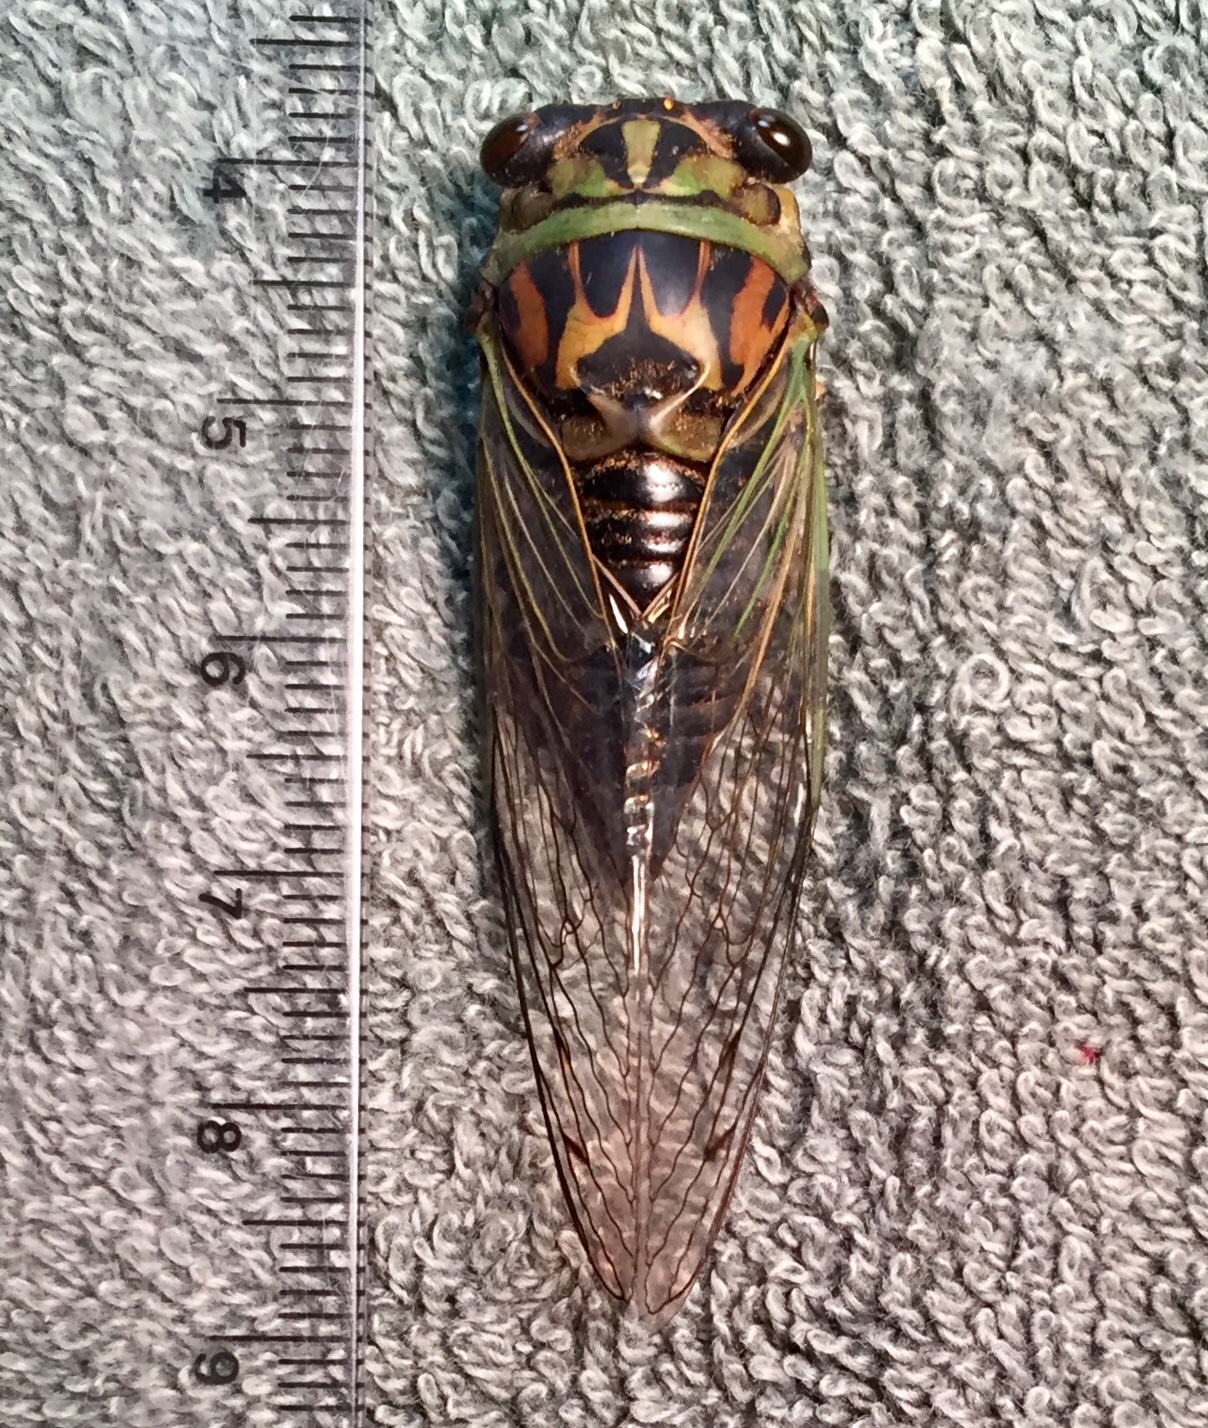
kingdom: Animalia
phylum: Arthropoda
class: Insecta
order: Hemiptera
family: Cicadidae
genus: Neotibicen
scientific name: Neotibicen linnei
